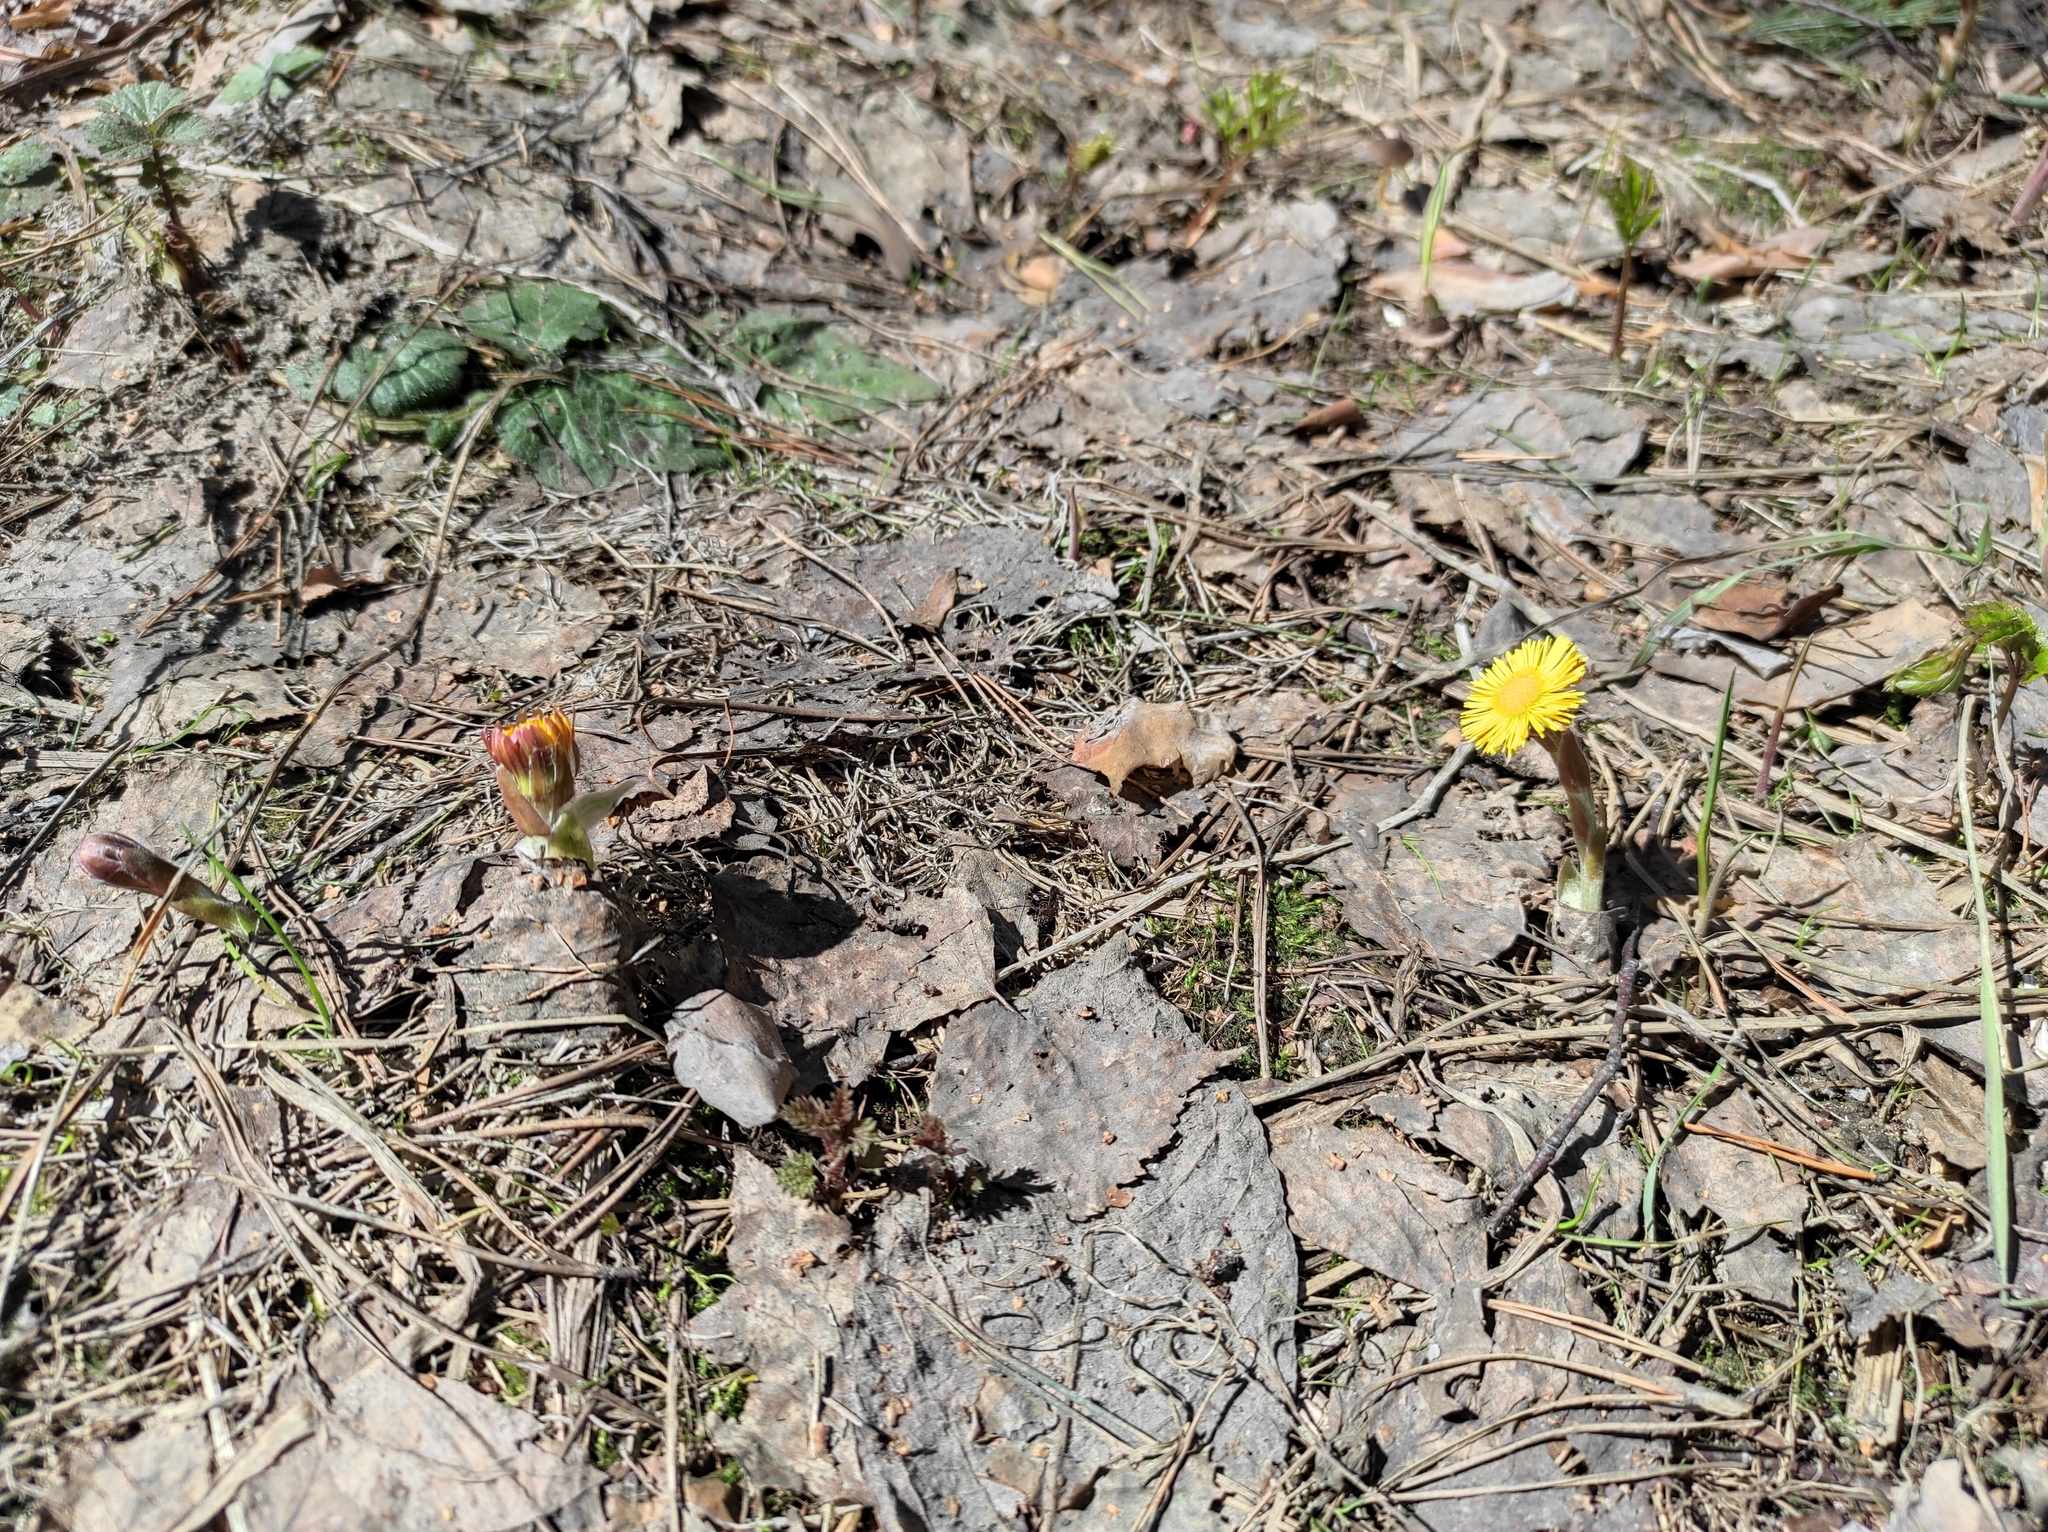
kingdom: Plantae
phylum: Tracheophyta
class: Magnoliopsida
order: Asterales
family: Asteraceae
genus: Tussilago
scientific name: Tussilago farfara
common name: Coltsfoot
